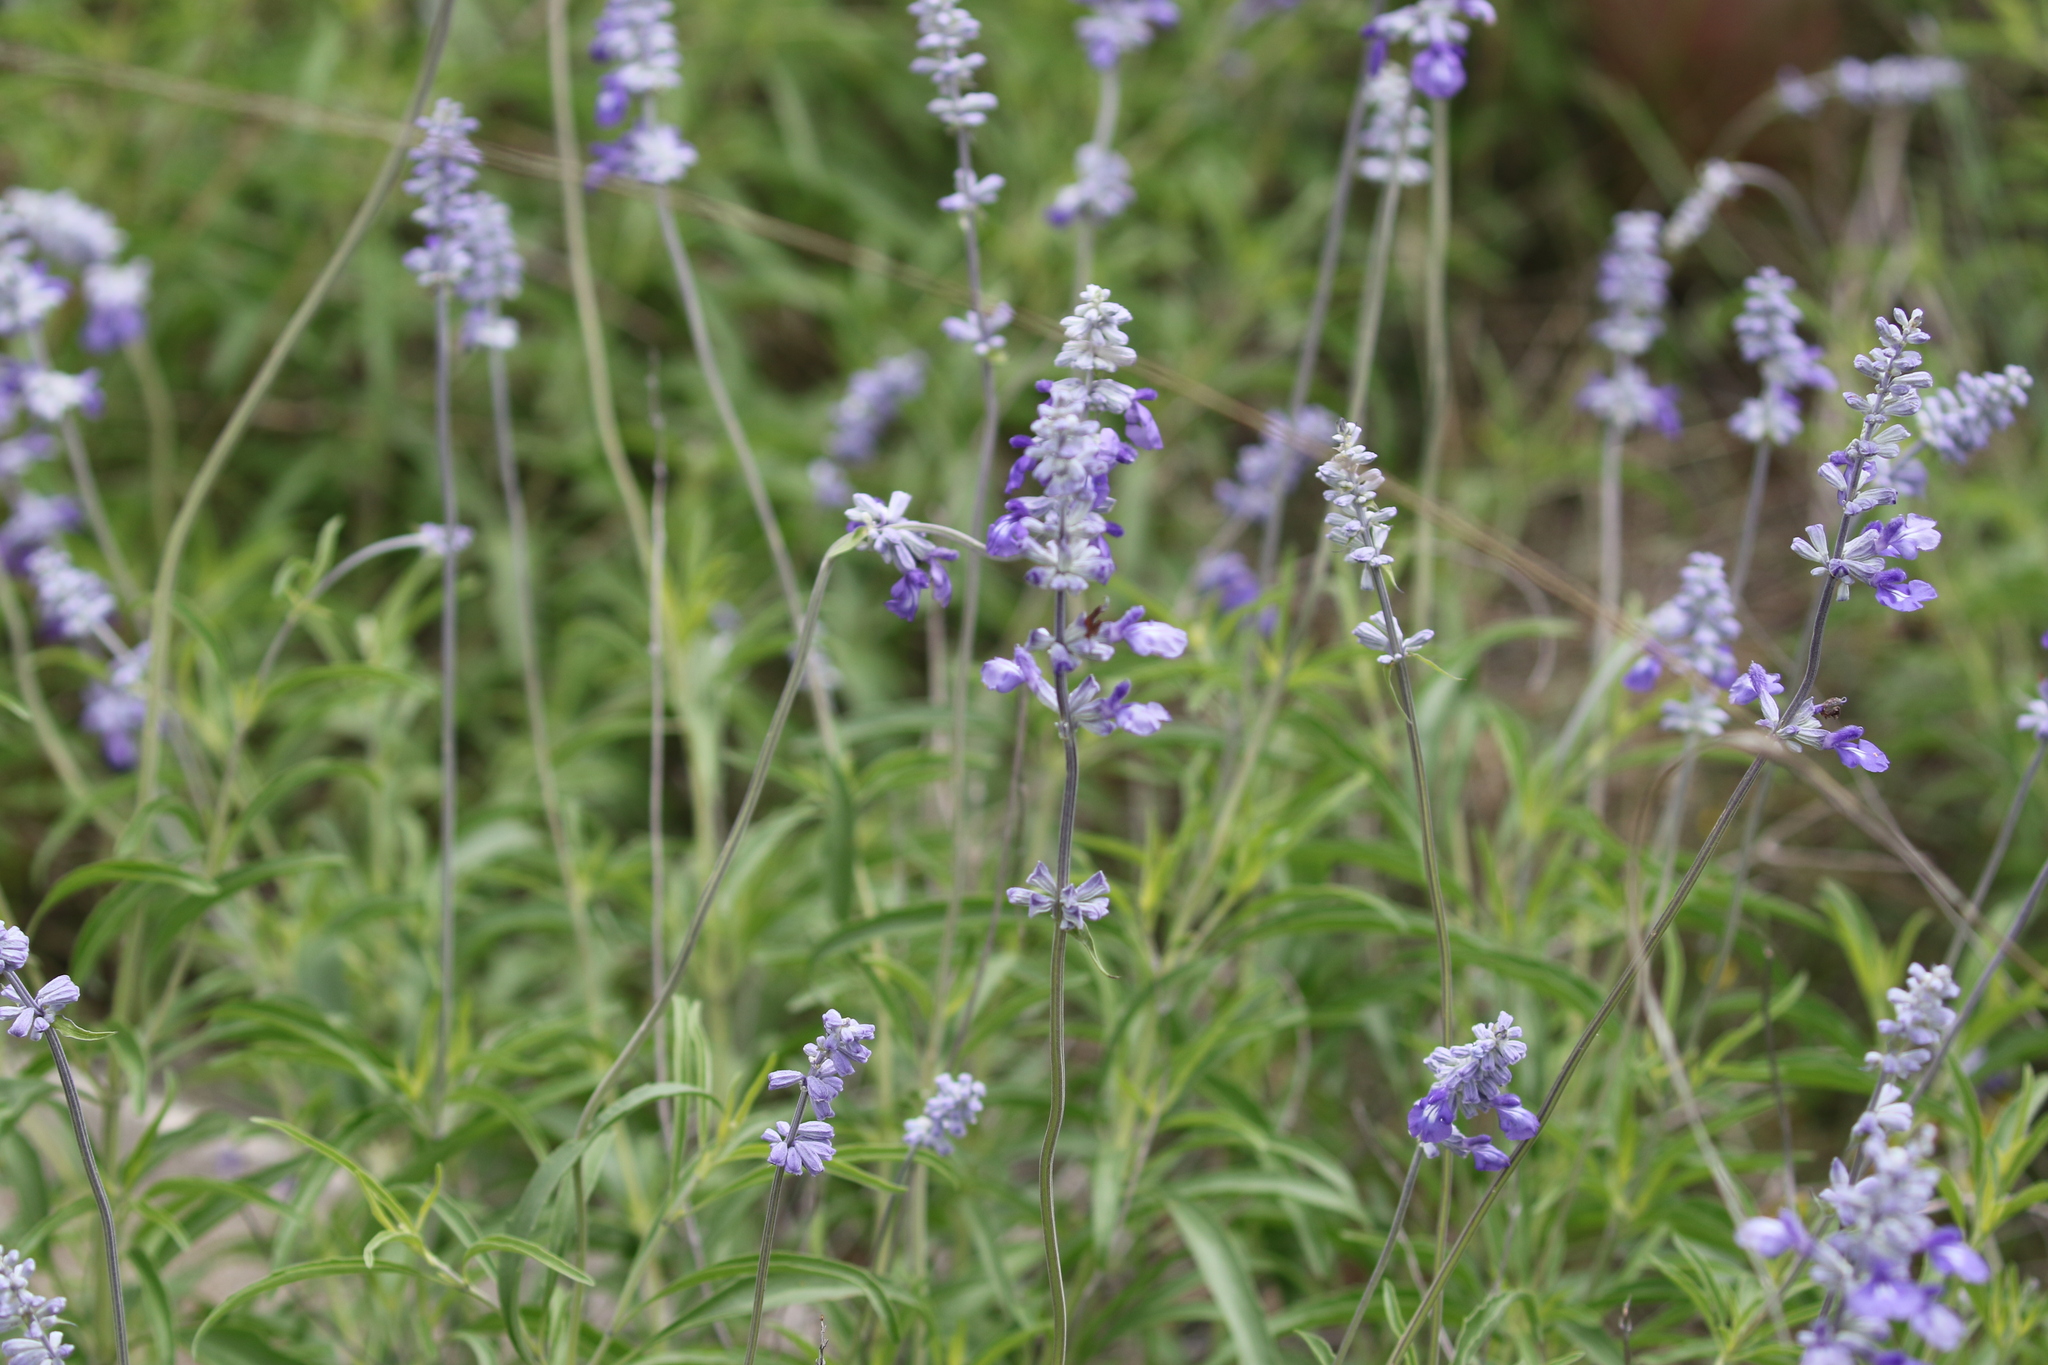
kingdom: Plantae
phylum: Tracheophyta
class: Magnoliopsida
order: Lamiales
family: Lamiaceae
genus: Salvia
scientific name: Salvia farinacea
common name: Mealy sage
